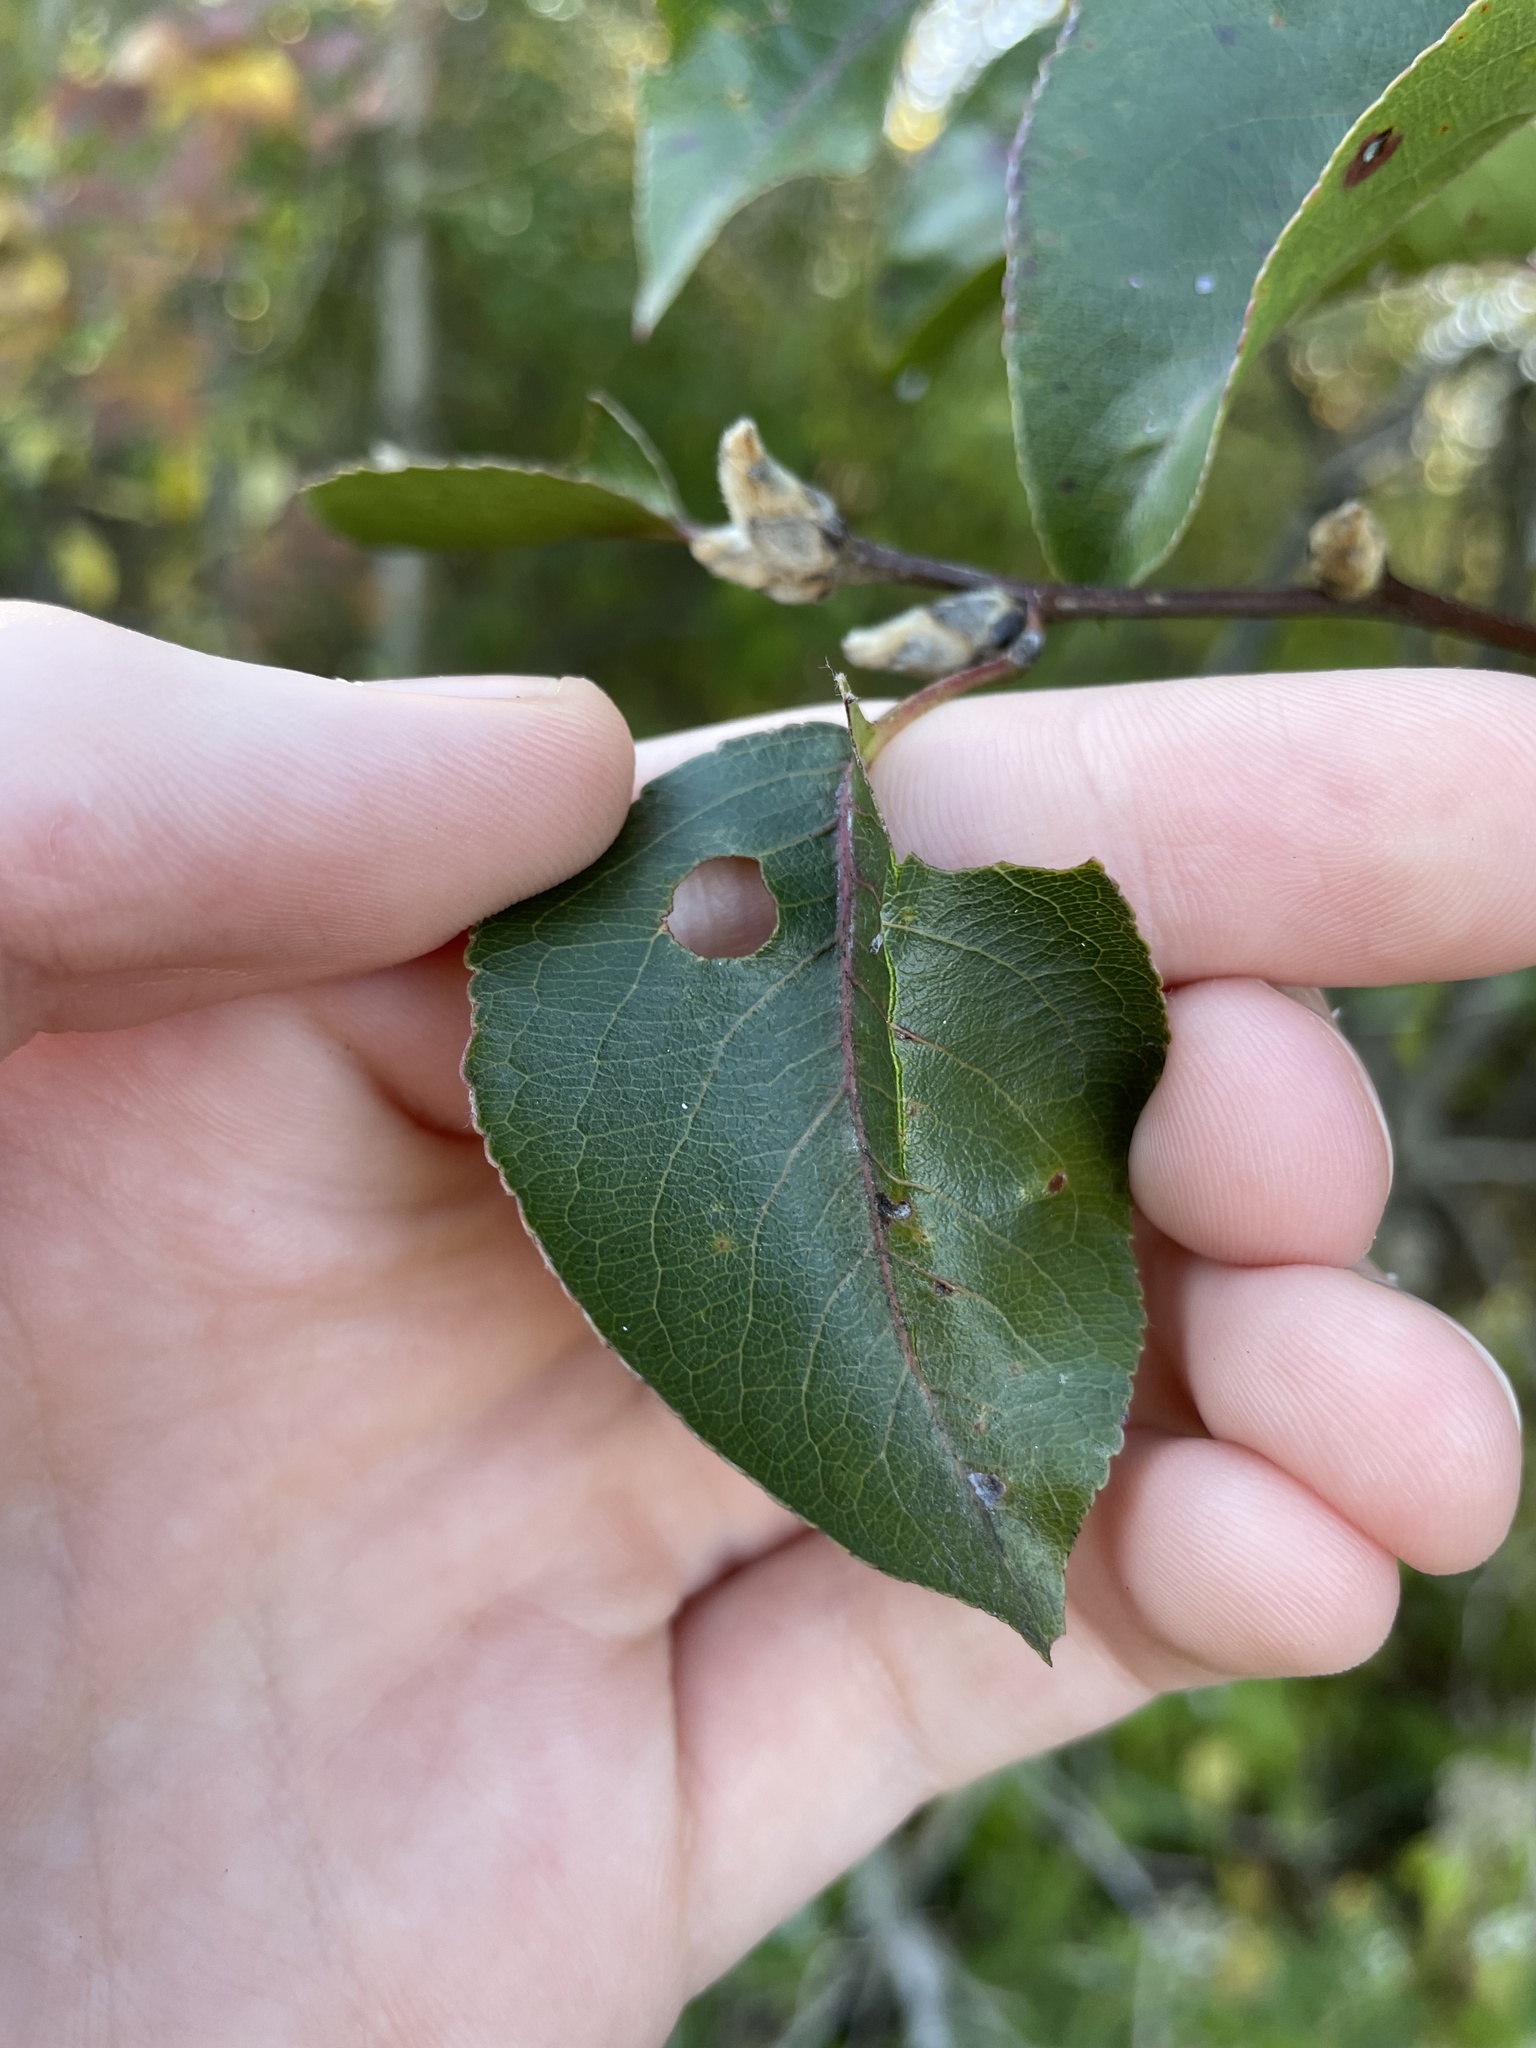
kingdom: Plantae
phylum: Tracheophyta
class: Magnoliopsida
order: Rosales
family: Rosaceae
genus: Pyrus
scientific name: Pyrus calleryana
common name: Callery pear
